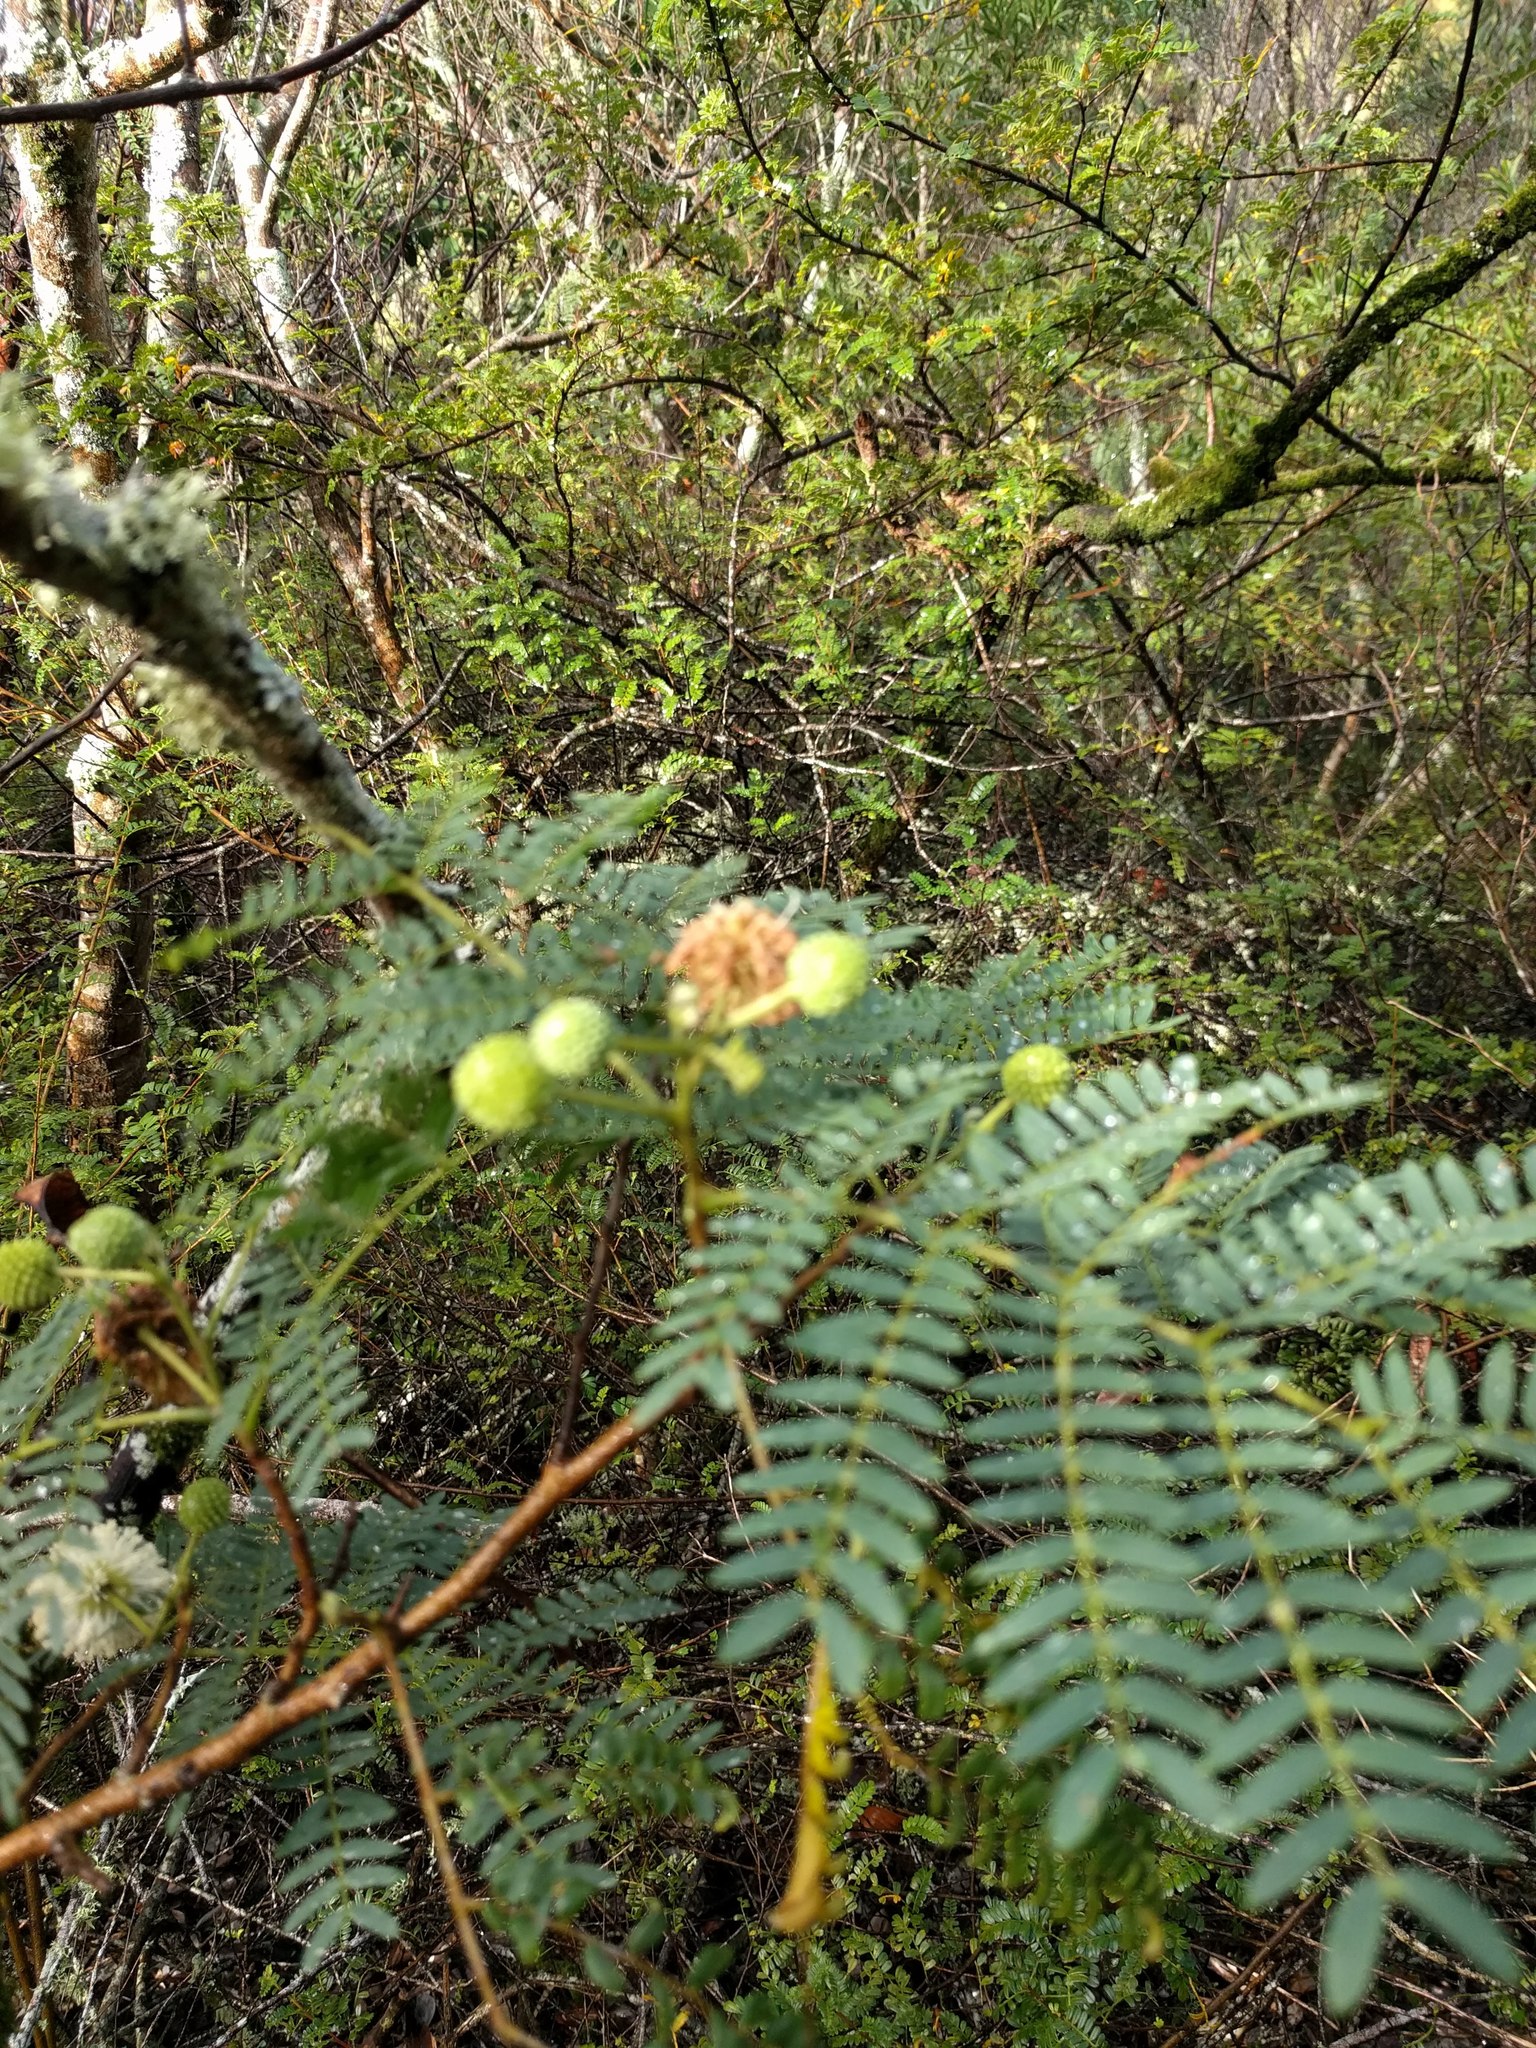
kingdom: Plantae
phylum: Tracheophyta
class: Magnoliopsida
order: Fabales
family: Fabaceae
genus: Leucaena
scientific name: Leucaena leucocephala
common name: White leadtree
